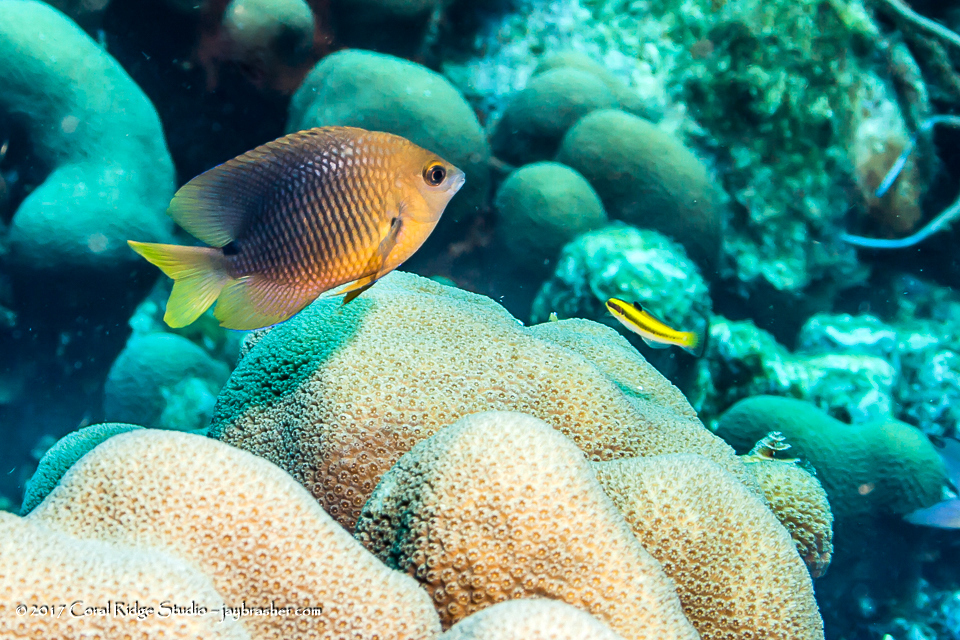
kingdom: Animalia
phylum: Chordata
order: Perciformes
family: Pomacentridae
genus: Stegastes
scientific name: Stegastes planifrons
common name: Threespot damselfish
